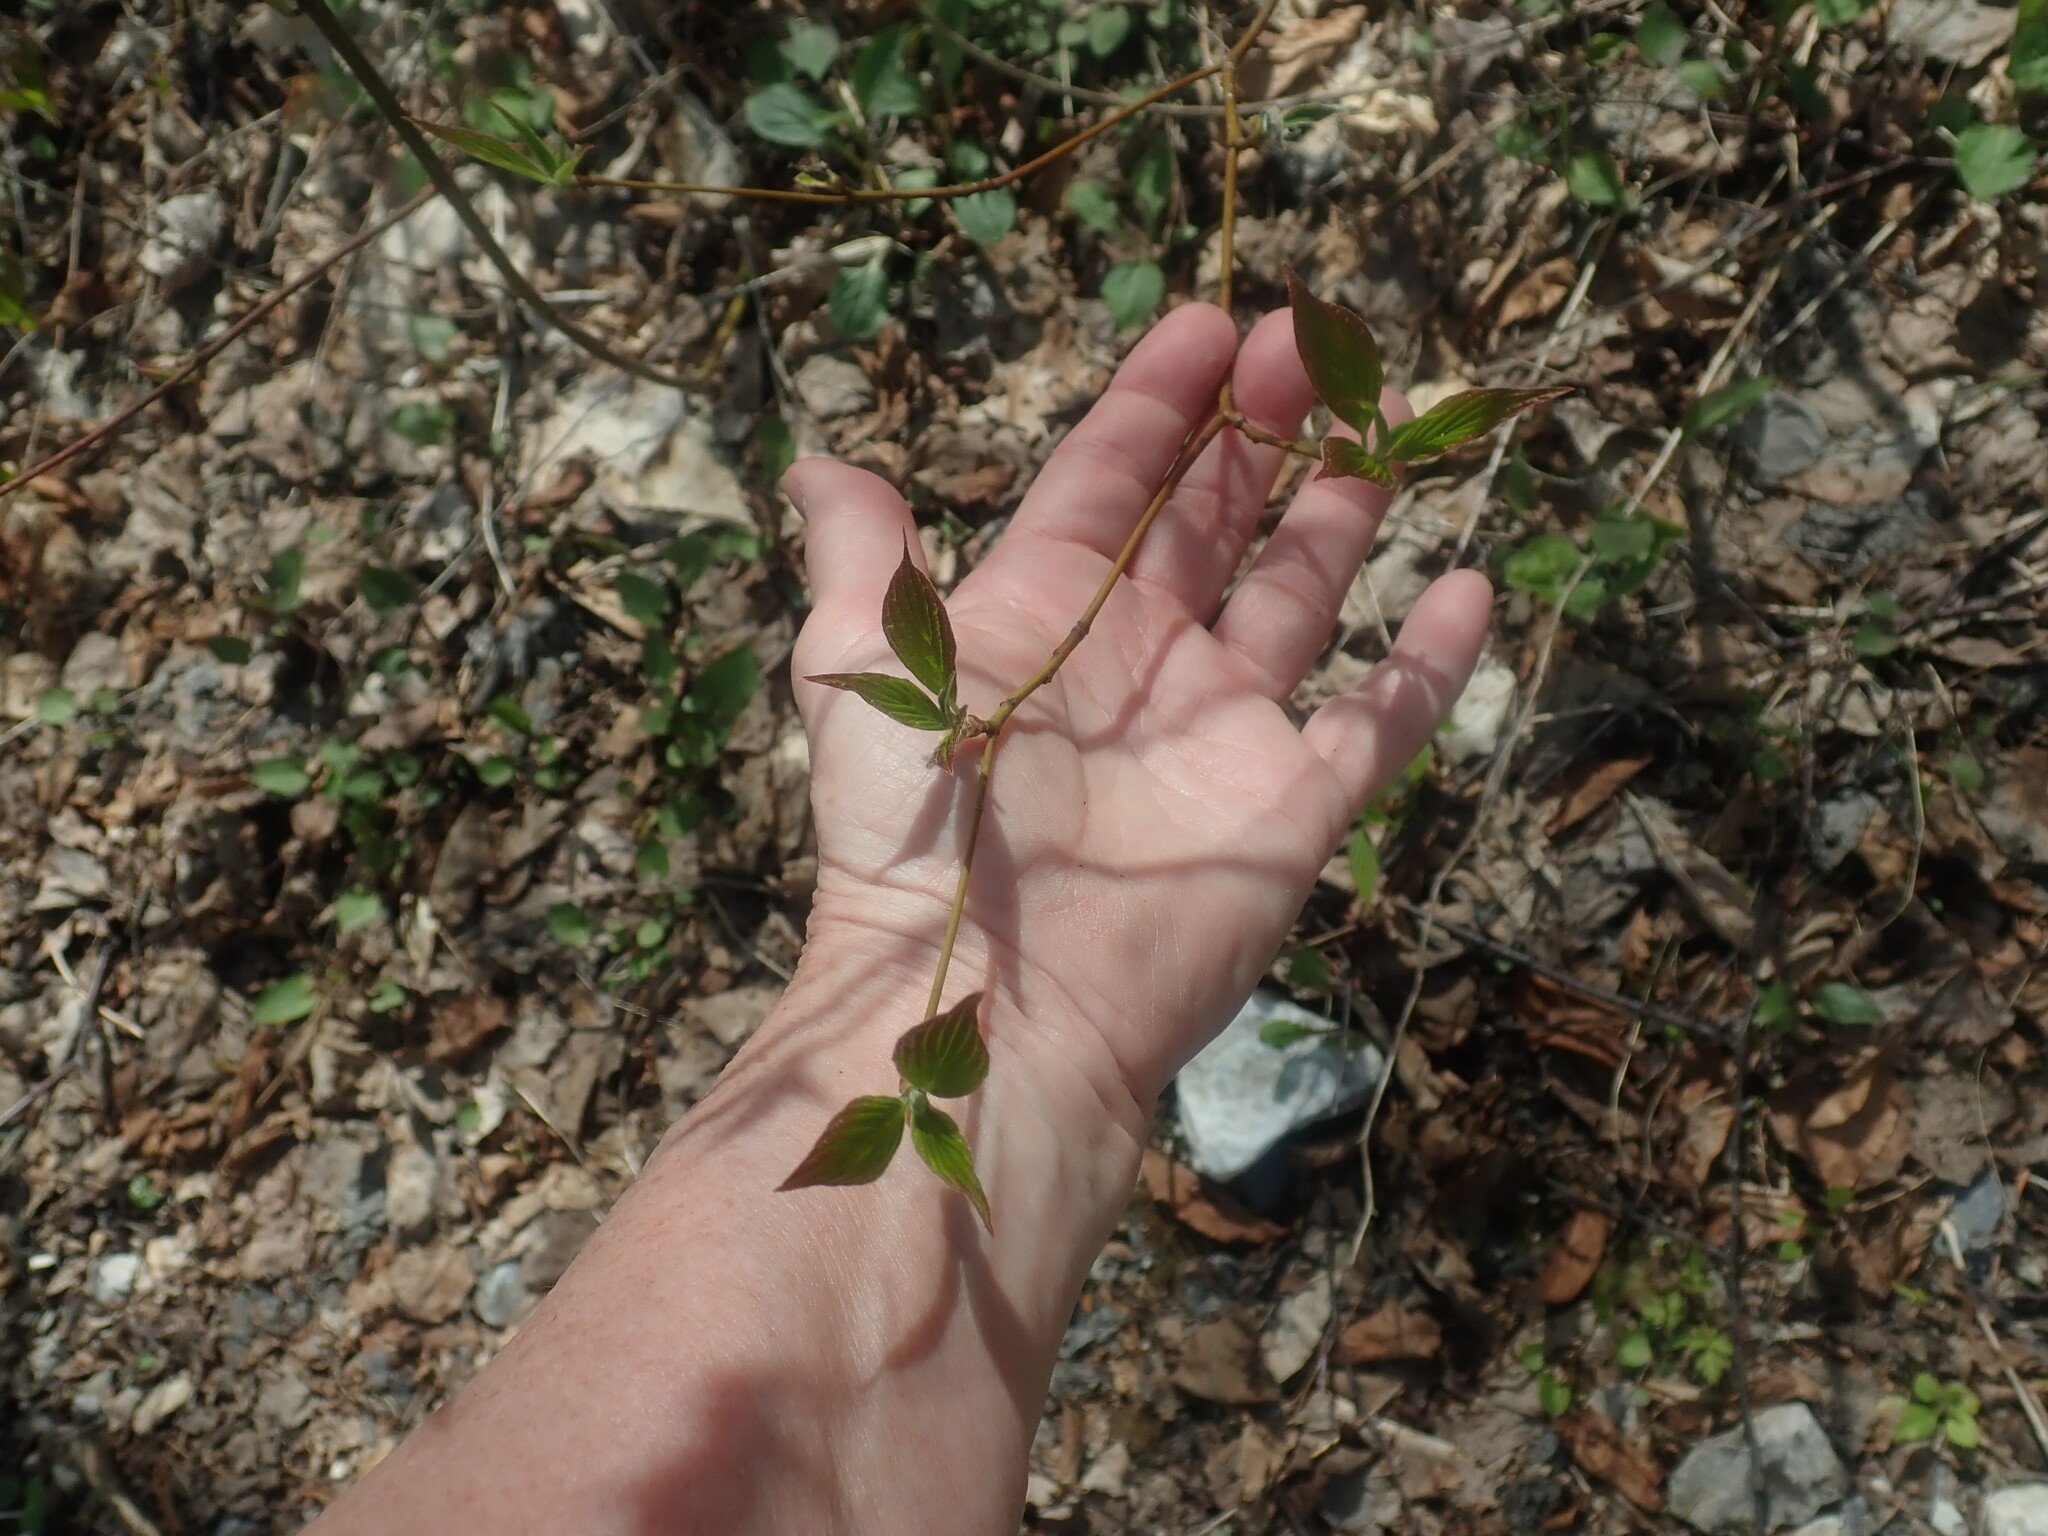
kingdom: Plantae
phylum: Tracheophyta
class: Magnoliopsida
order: Cornales
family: Cornaceae
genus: Cornus
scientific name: Cornus alternifolia
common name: Pagoda dogwood
